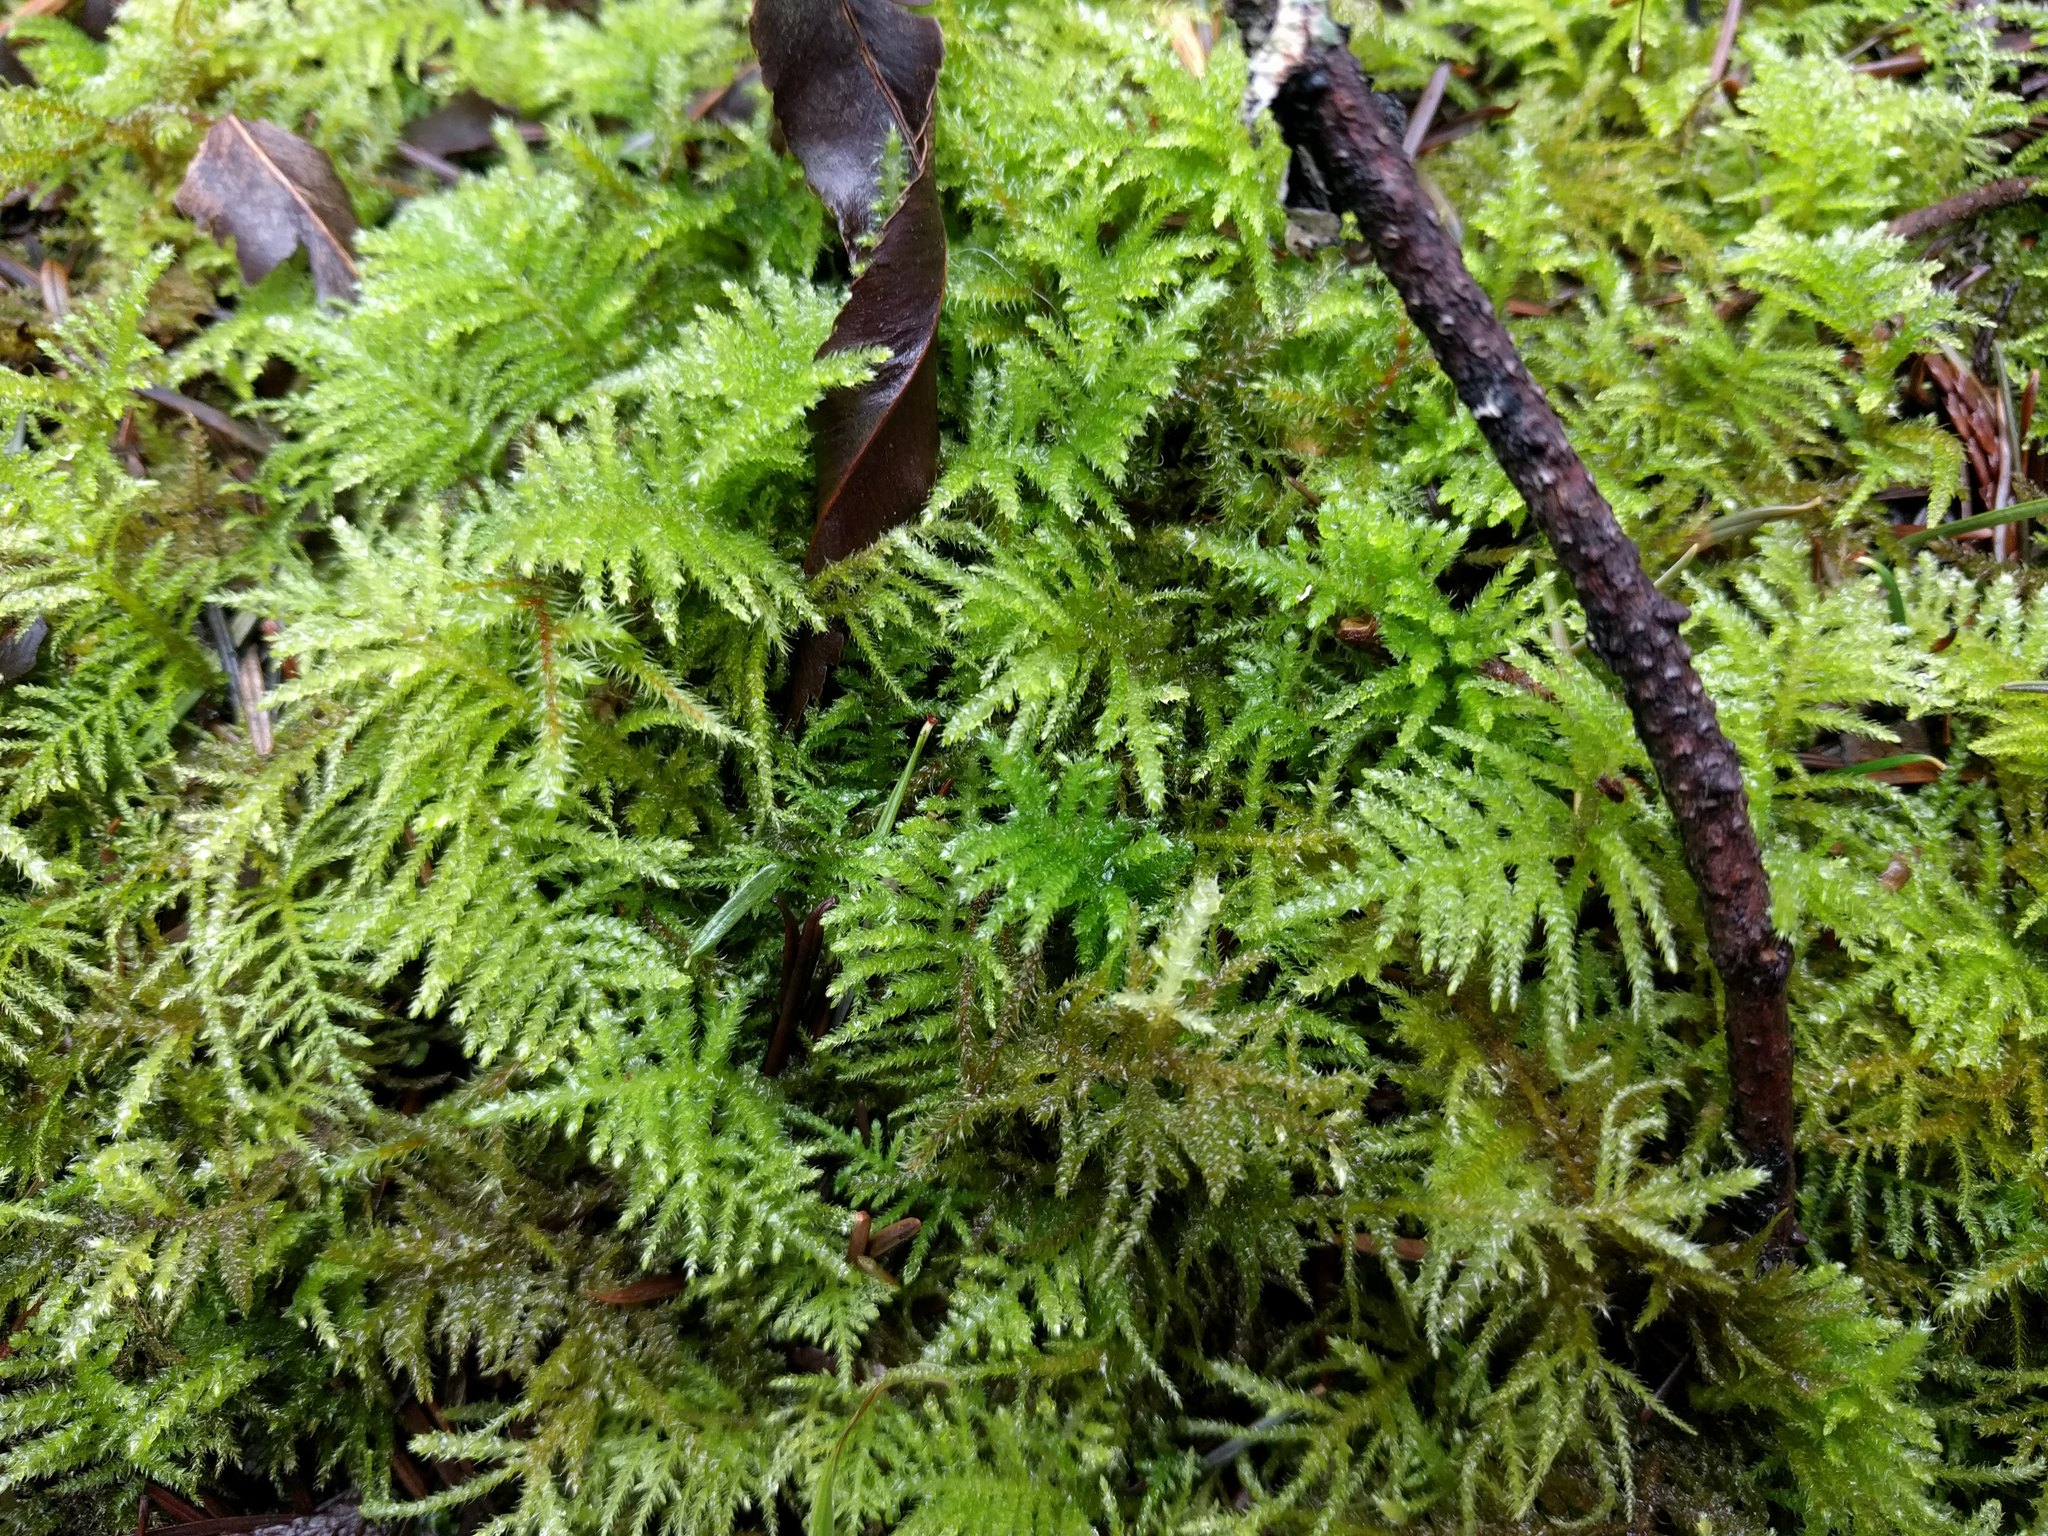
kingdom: Plantae
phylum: Bryophyta
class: Bryopsida
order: Hypnales
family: Brachytheciaceae
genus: Kindbergia
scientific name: Kindbergia oregana
